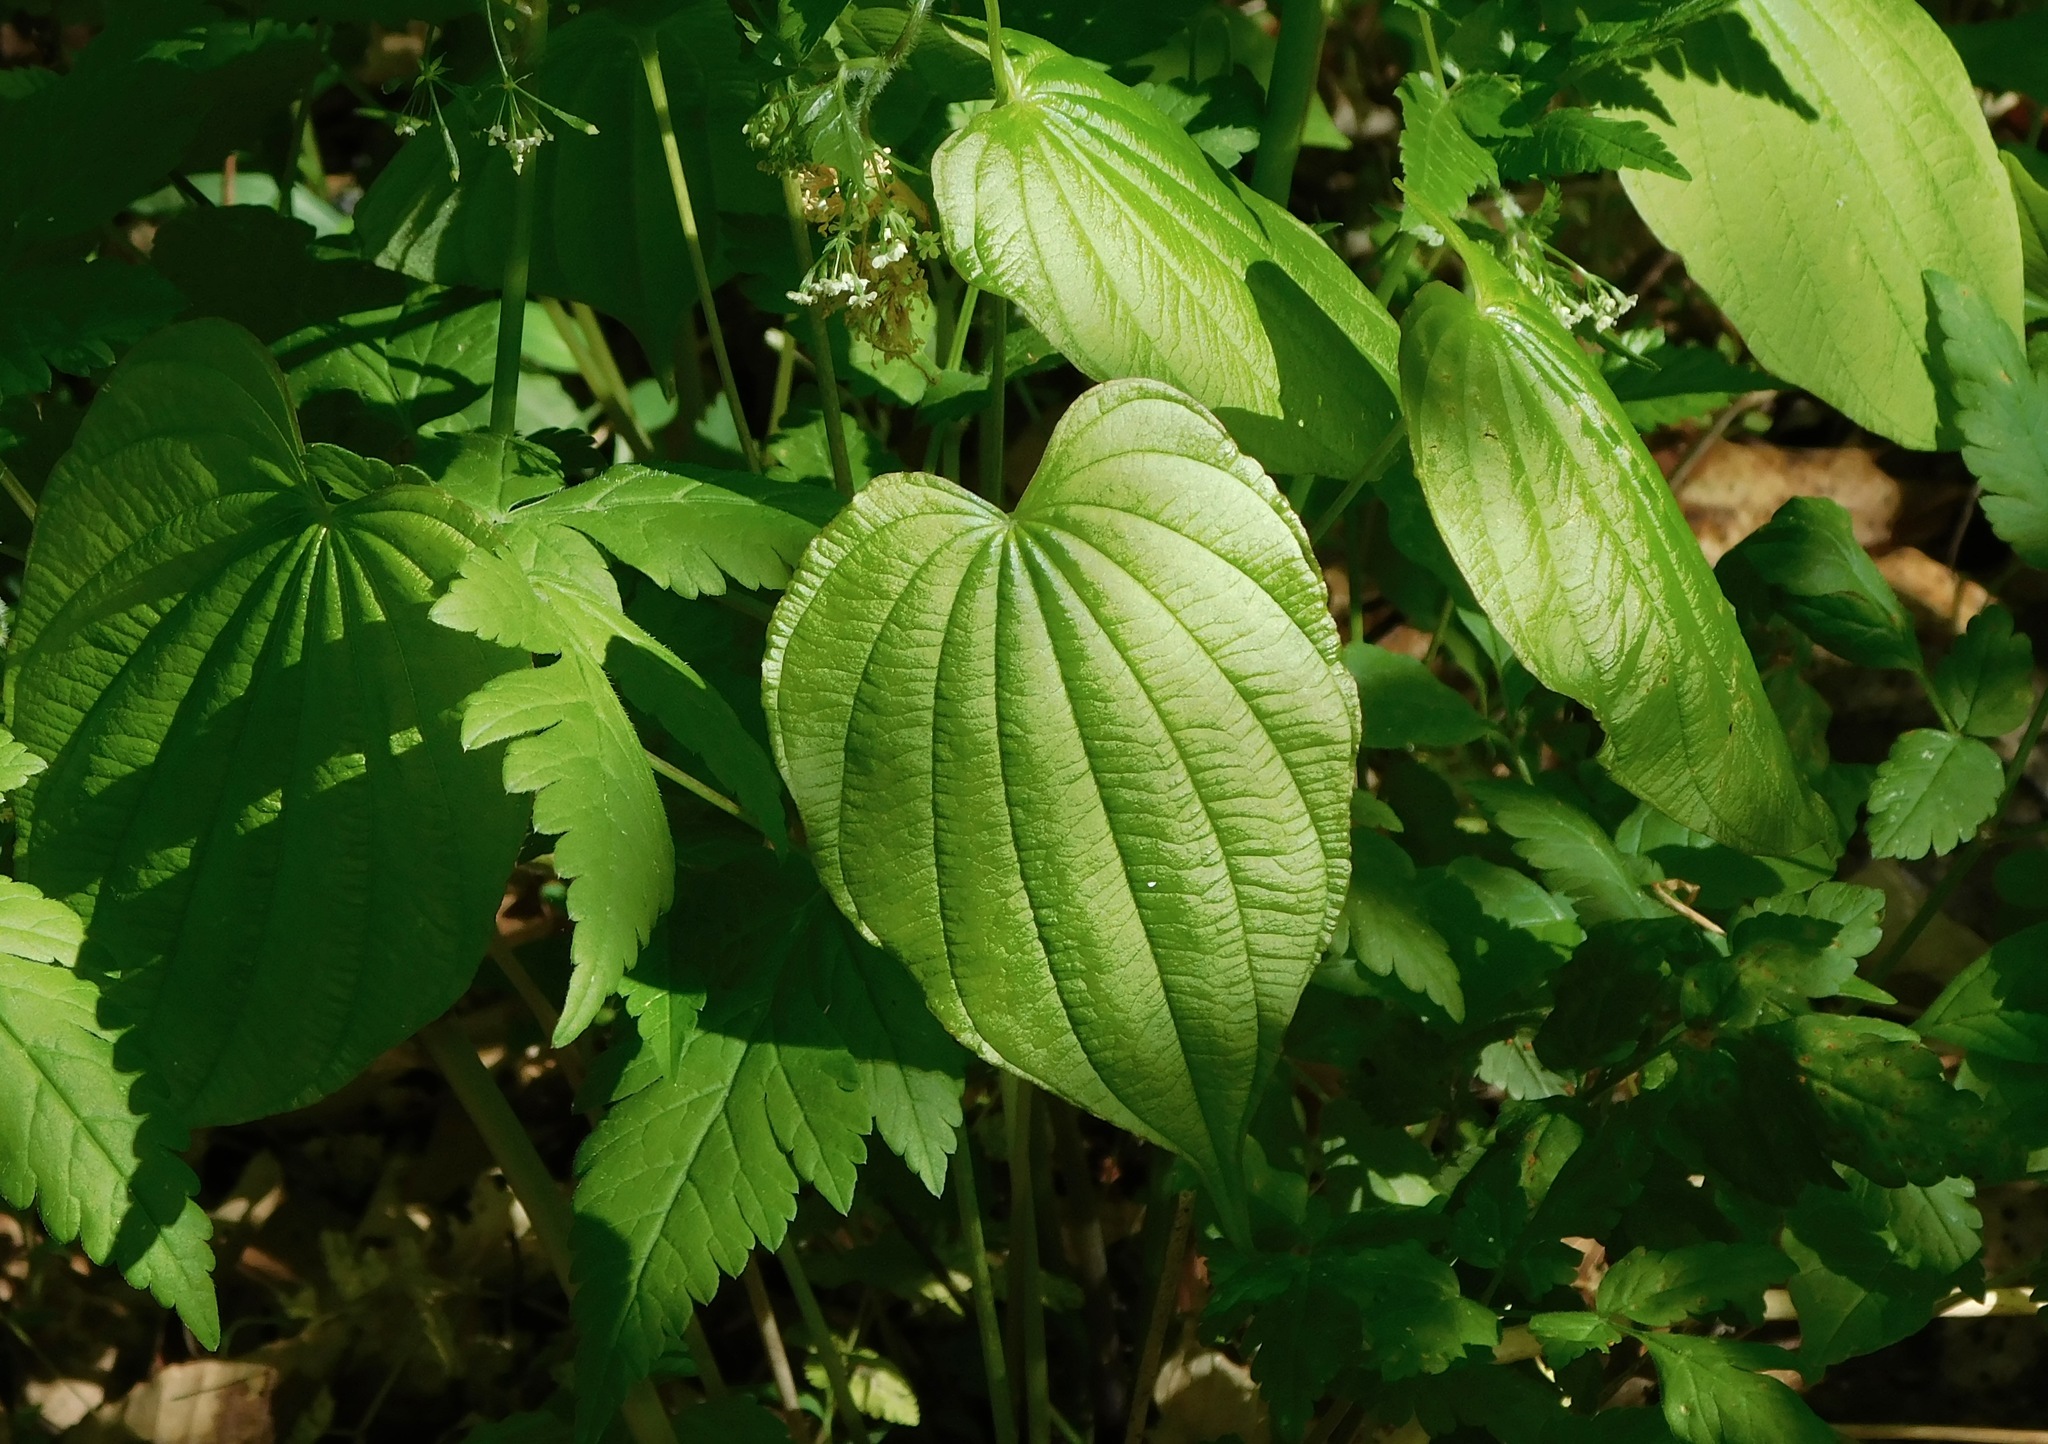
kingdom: Plantae
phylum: Tracheophyta
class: Liliopsida
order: Dioscoreales
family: Dioscoreaceae
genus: Dioscorea
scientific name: Dioscorea villosa
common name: Wild yam
